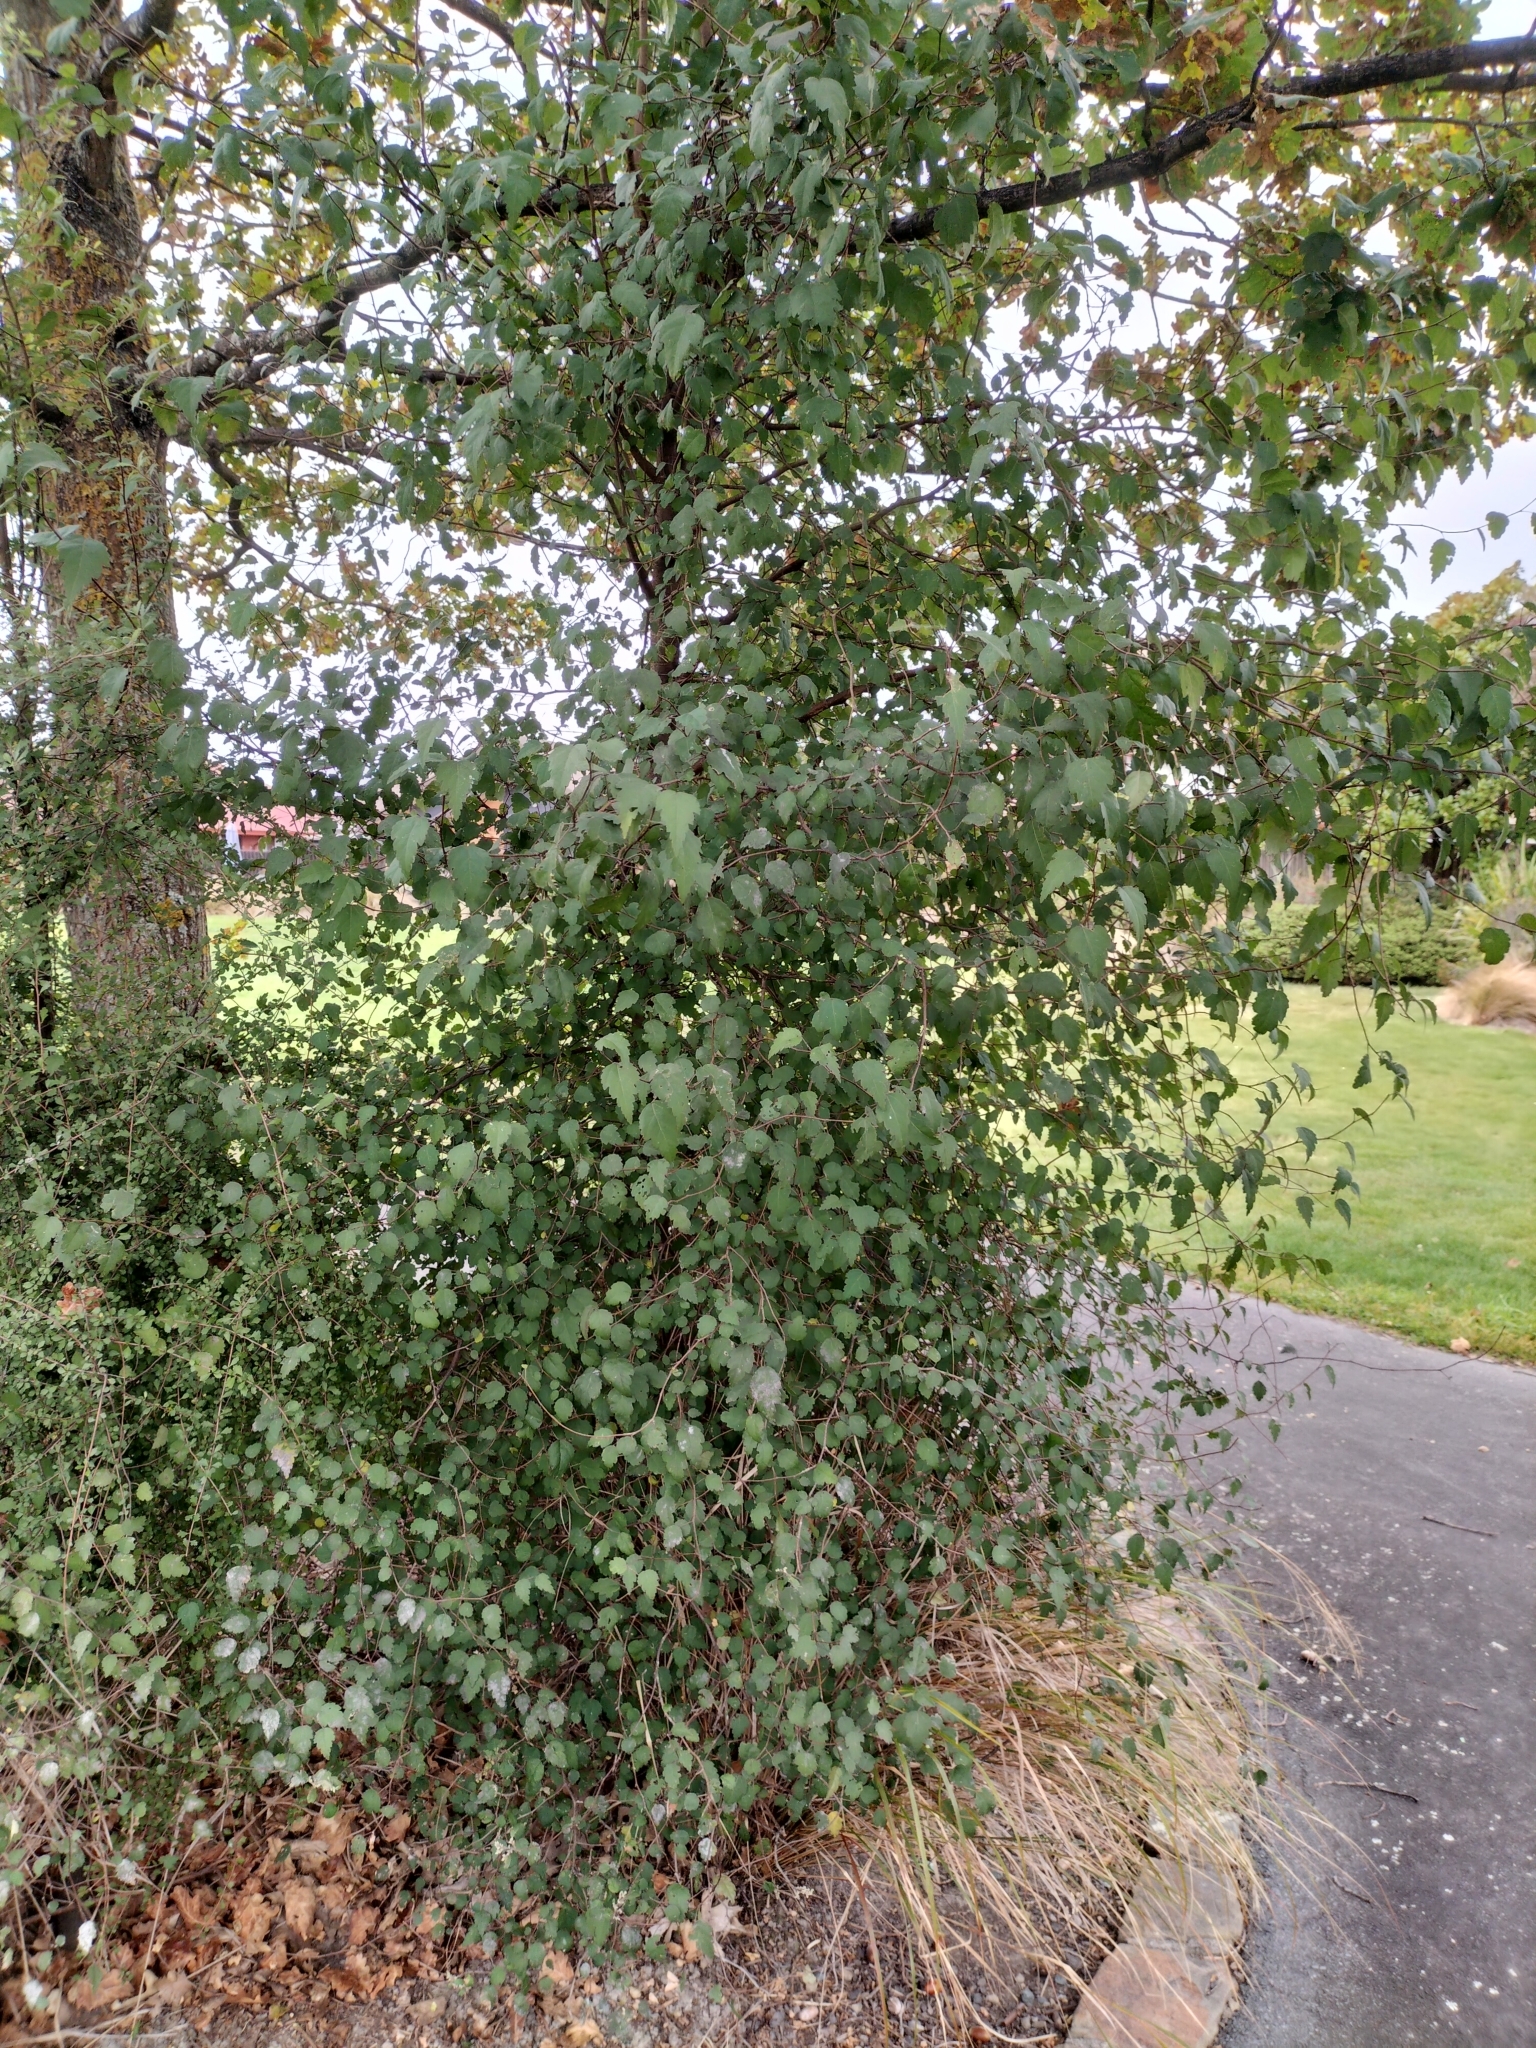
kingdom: Plantae
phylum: Tracheophyta
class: Magnoliopsida
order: Malvales
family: Malvaceae
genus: Plagianthus
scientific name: Plagianthus regius
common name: Manatu
